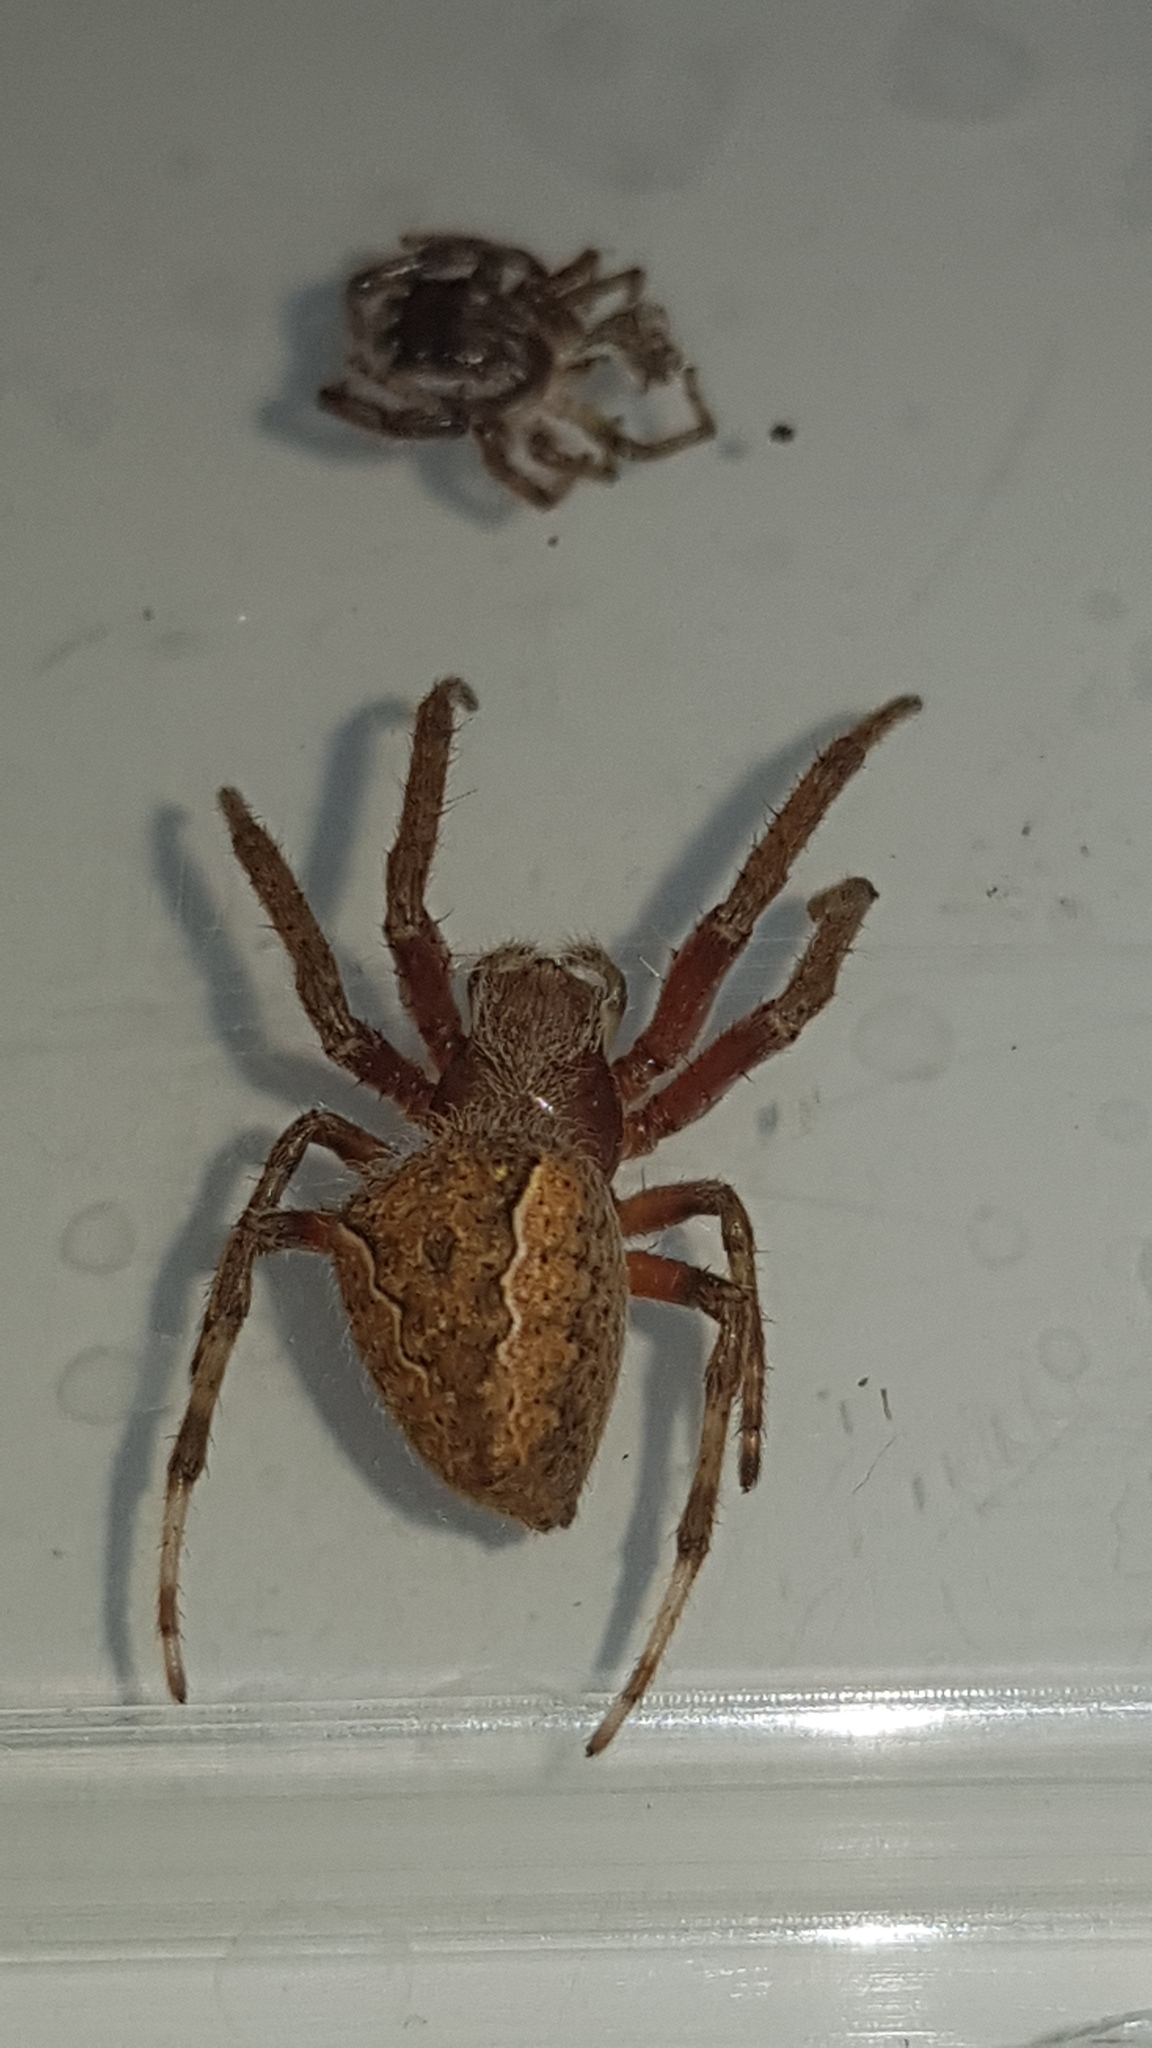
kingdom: Animalia
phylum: Arthropoda
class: Arachnida
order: Araneae
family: Araneidae
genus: Hortophora
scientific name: Hortophora
